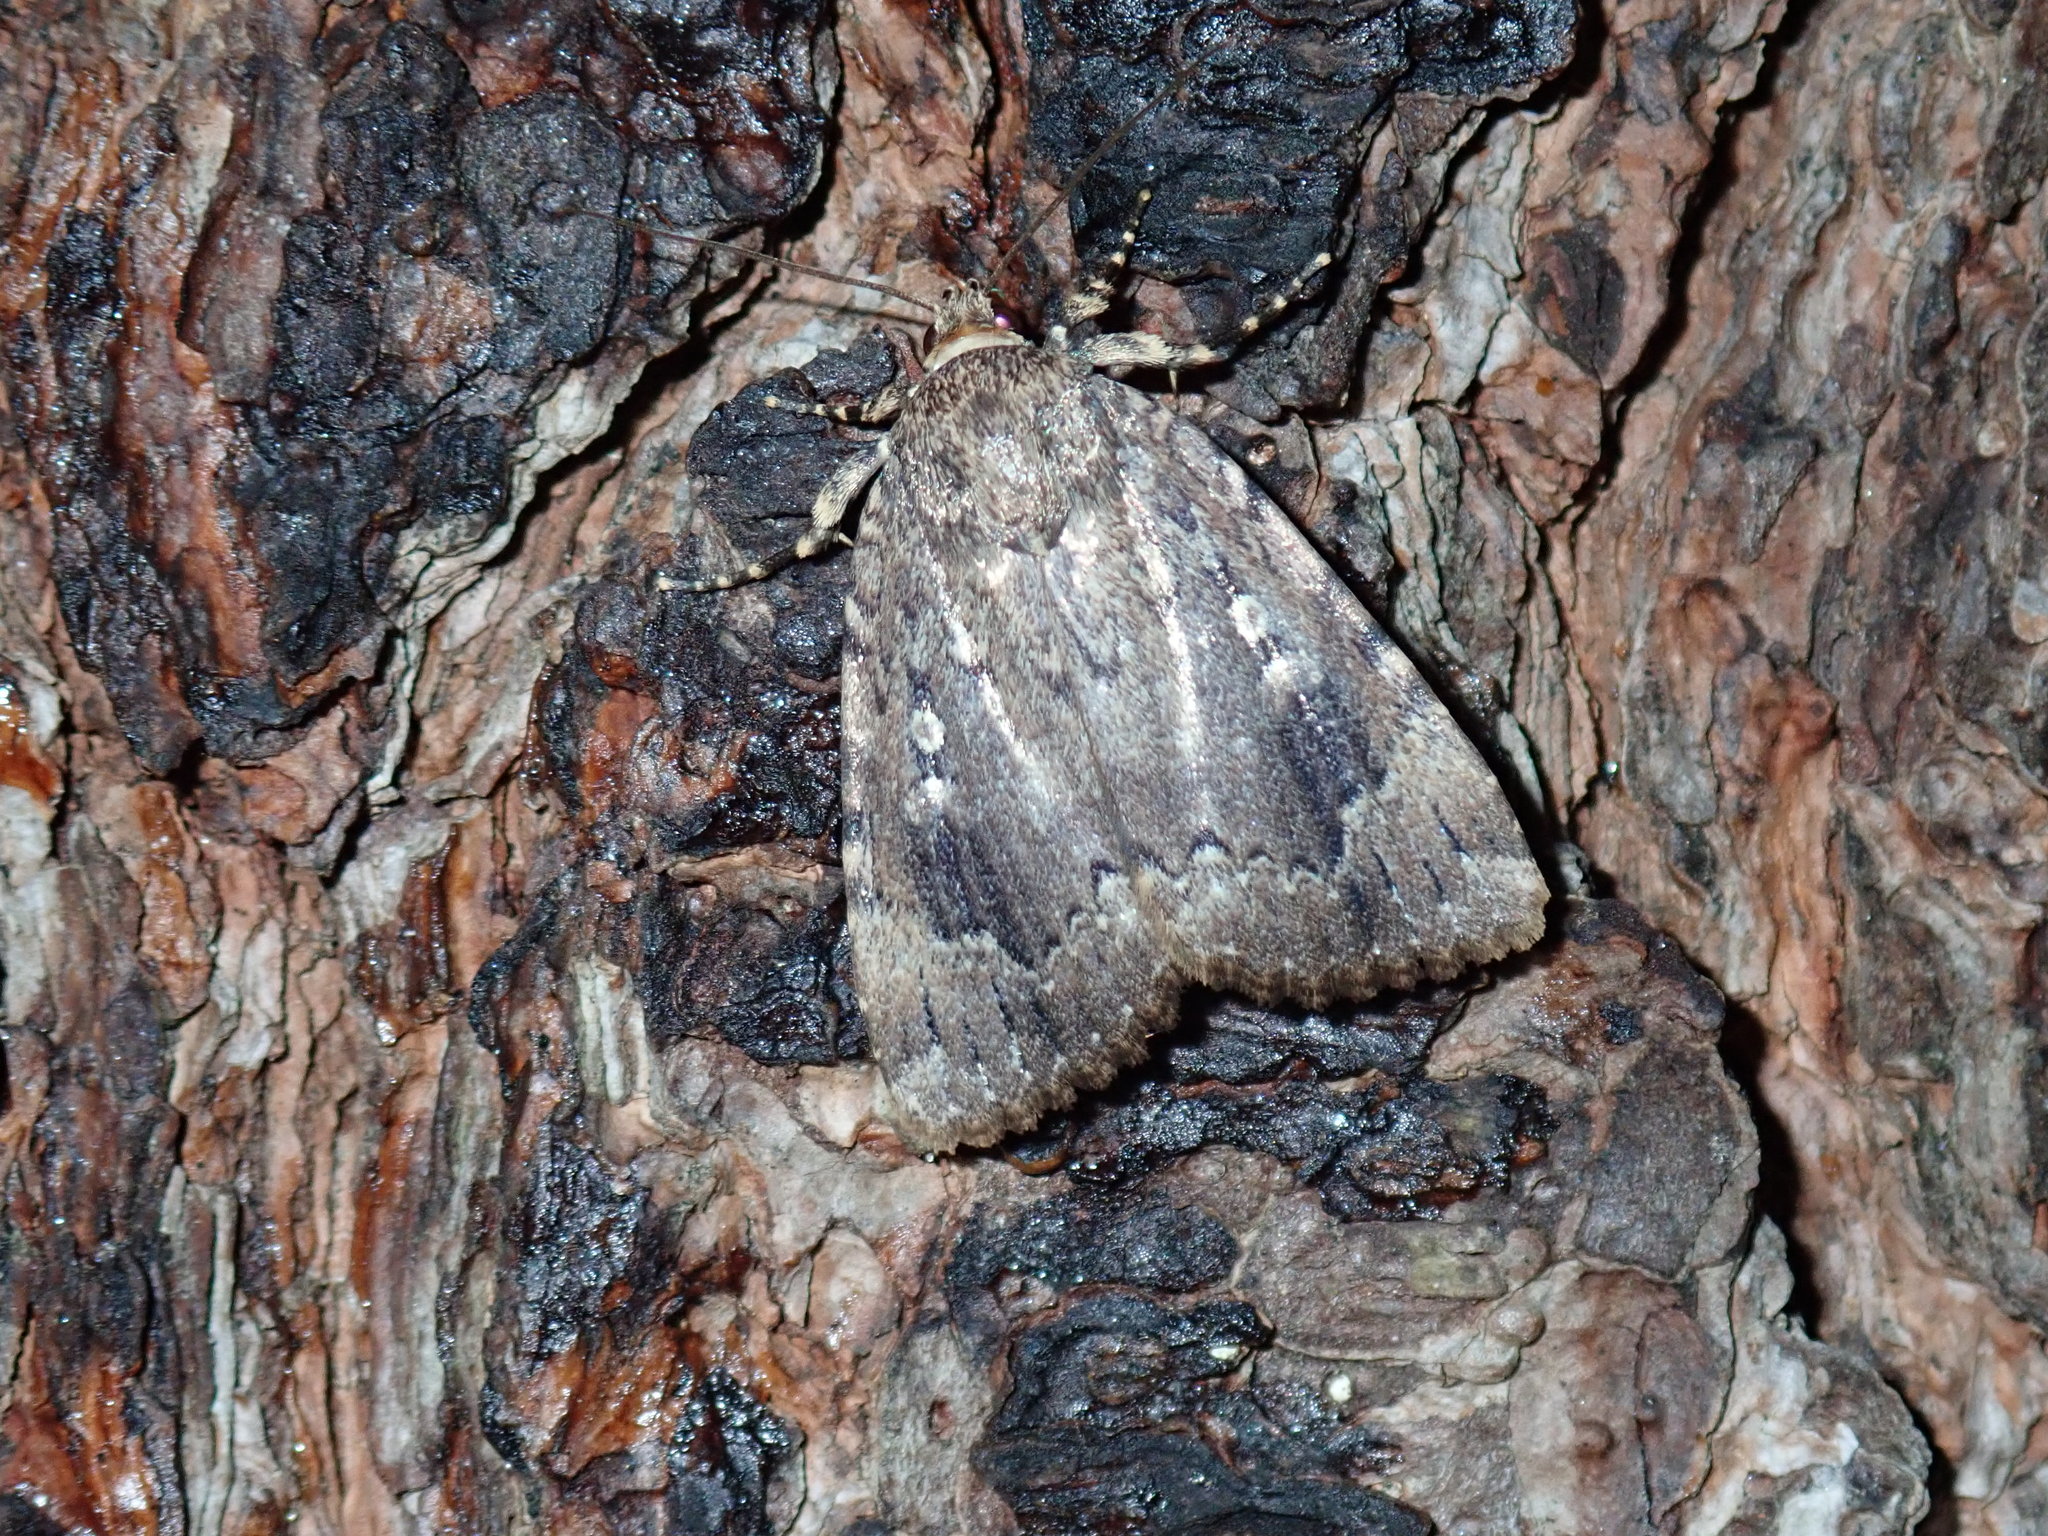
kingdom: Animalia
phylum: Arthropoda
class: Insecta
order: Lepidoptera
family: Noctuidae
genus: Amphipyra
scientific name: Amphipyra pyramidoides
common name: American copper underwing
